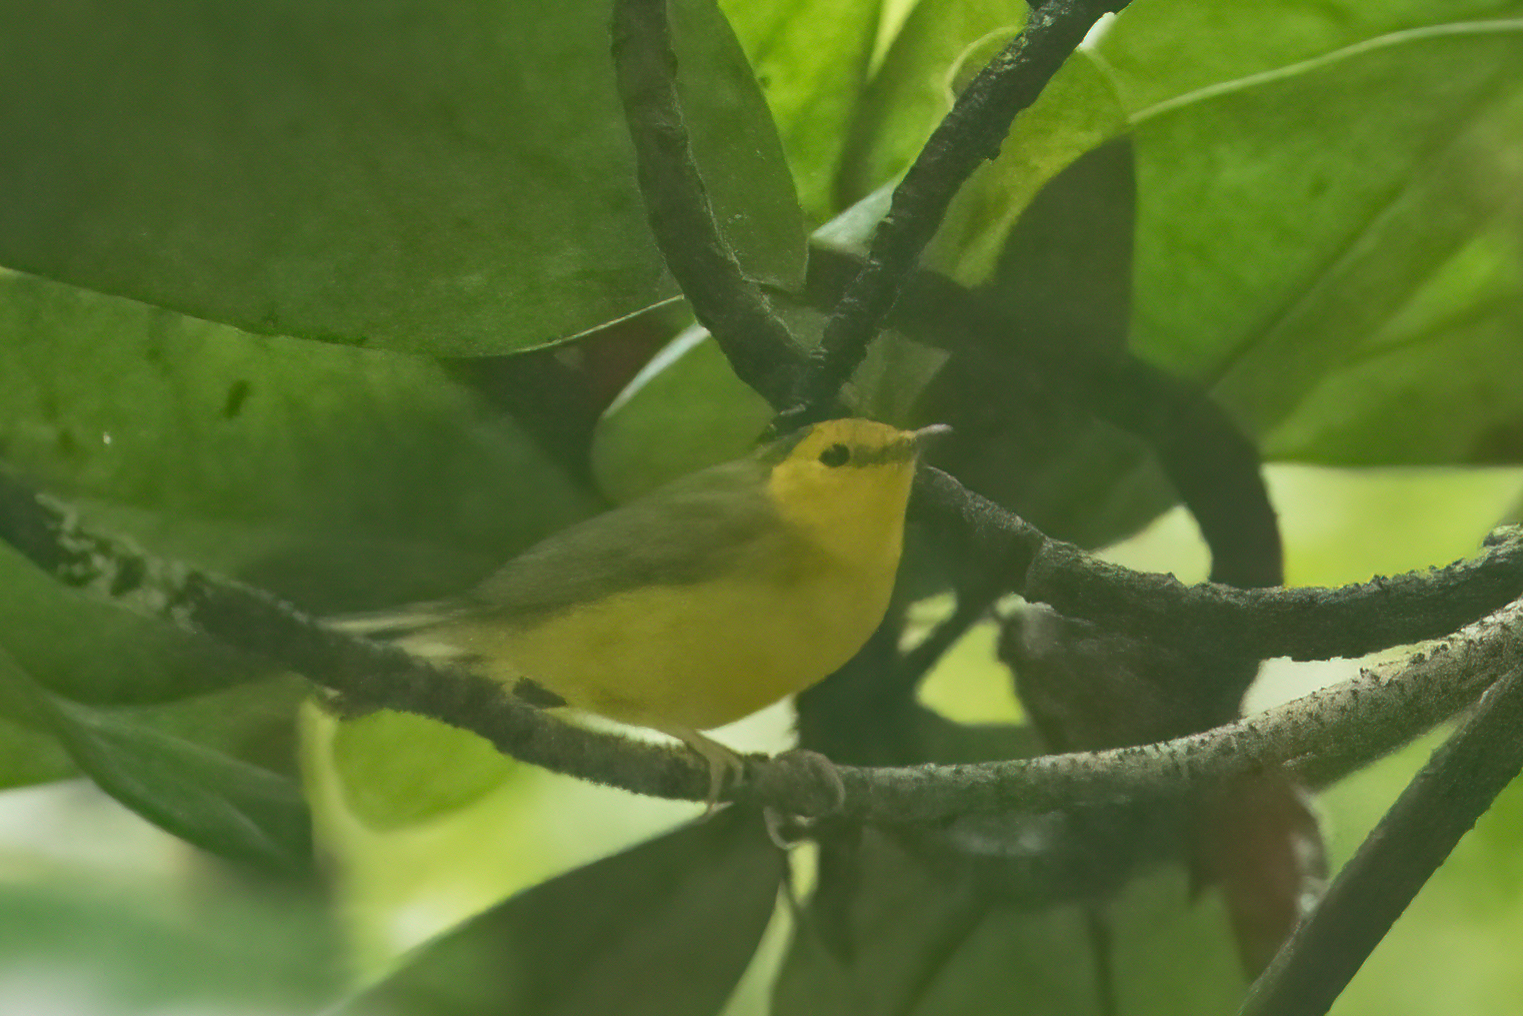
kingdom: Animalia
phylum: Chordata
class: Aves
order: Passeriformes
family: Parulidae
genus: Setophaga
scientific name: Setophaga citrina
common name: Hooded warbler
